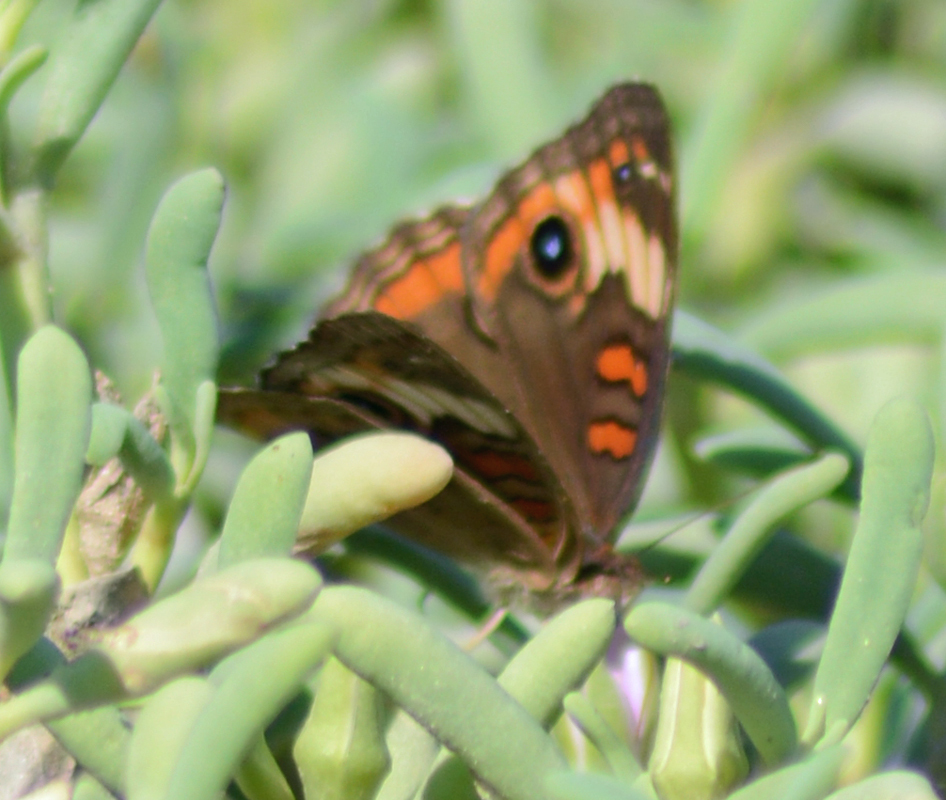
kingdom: Animalia
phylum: Arthropoda
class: Insecta
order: Lepidoptera
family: Nymphalidae
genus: Junonia
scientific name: Junonia pacoma
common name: Pacific mangrove buckeye
